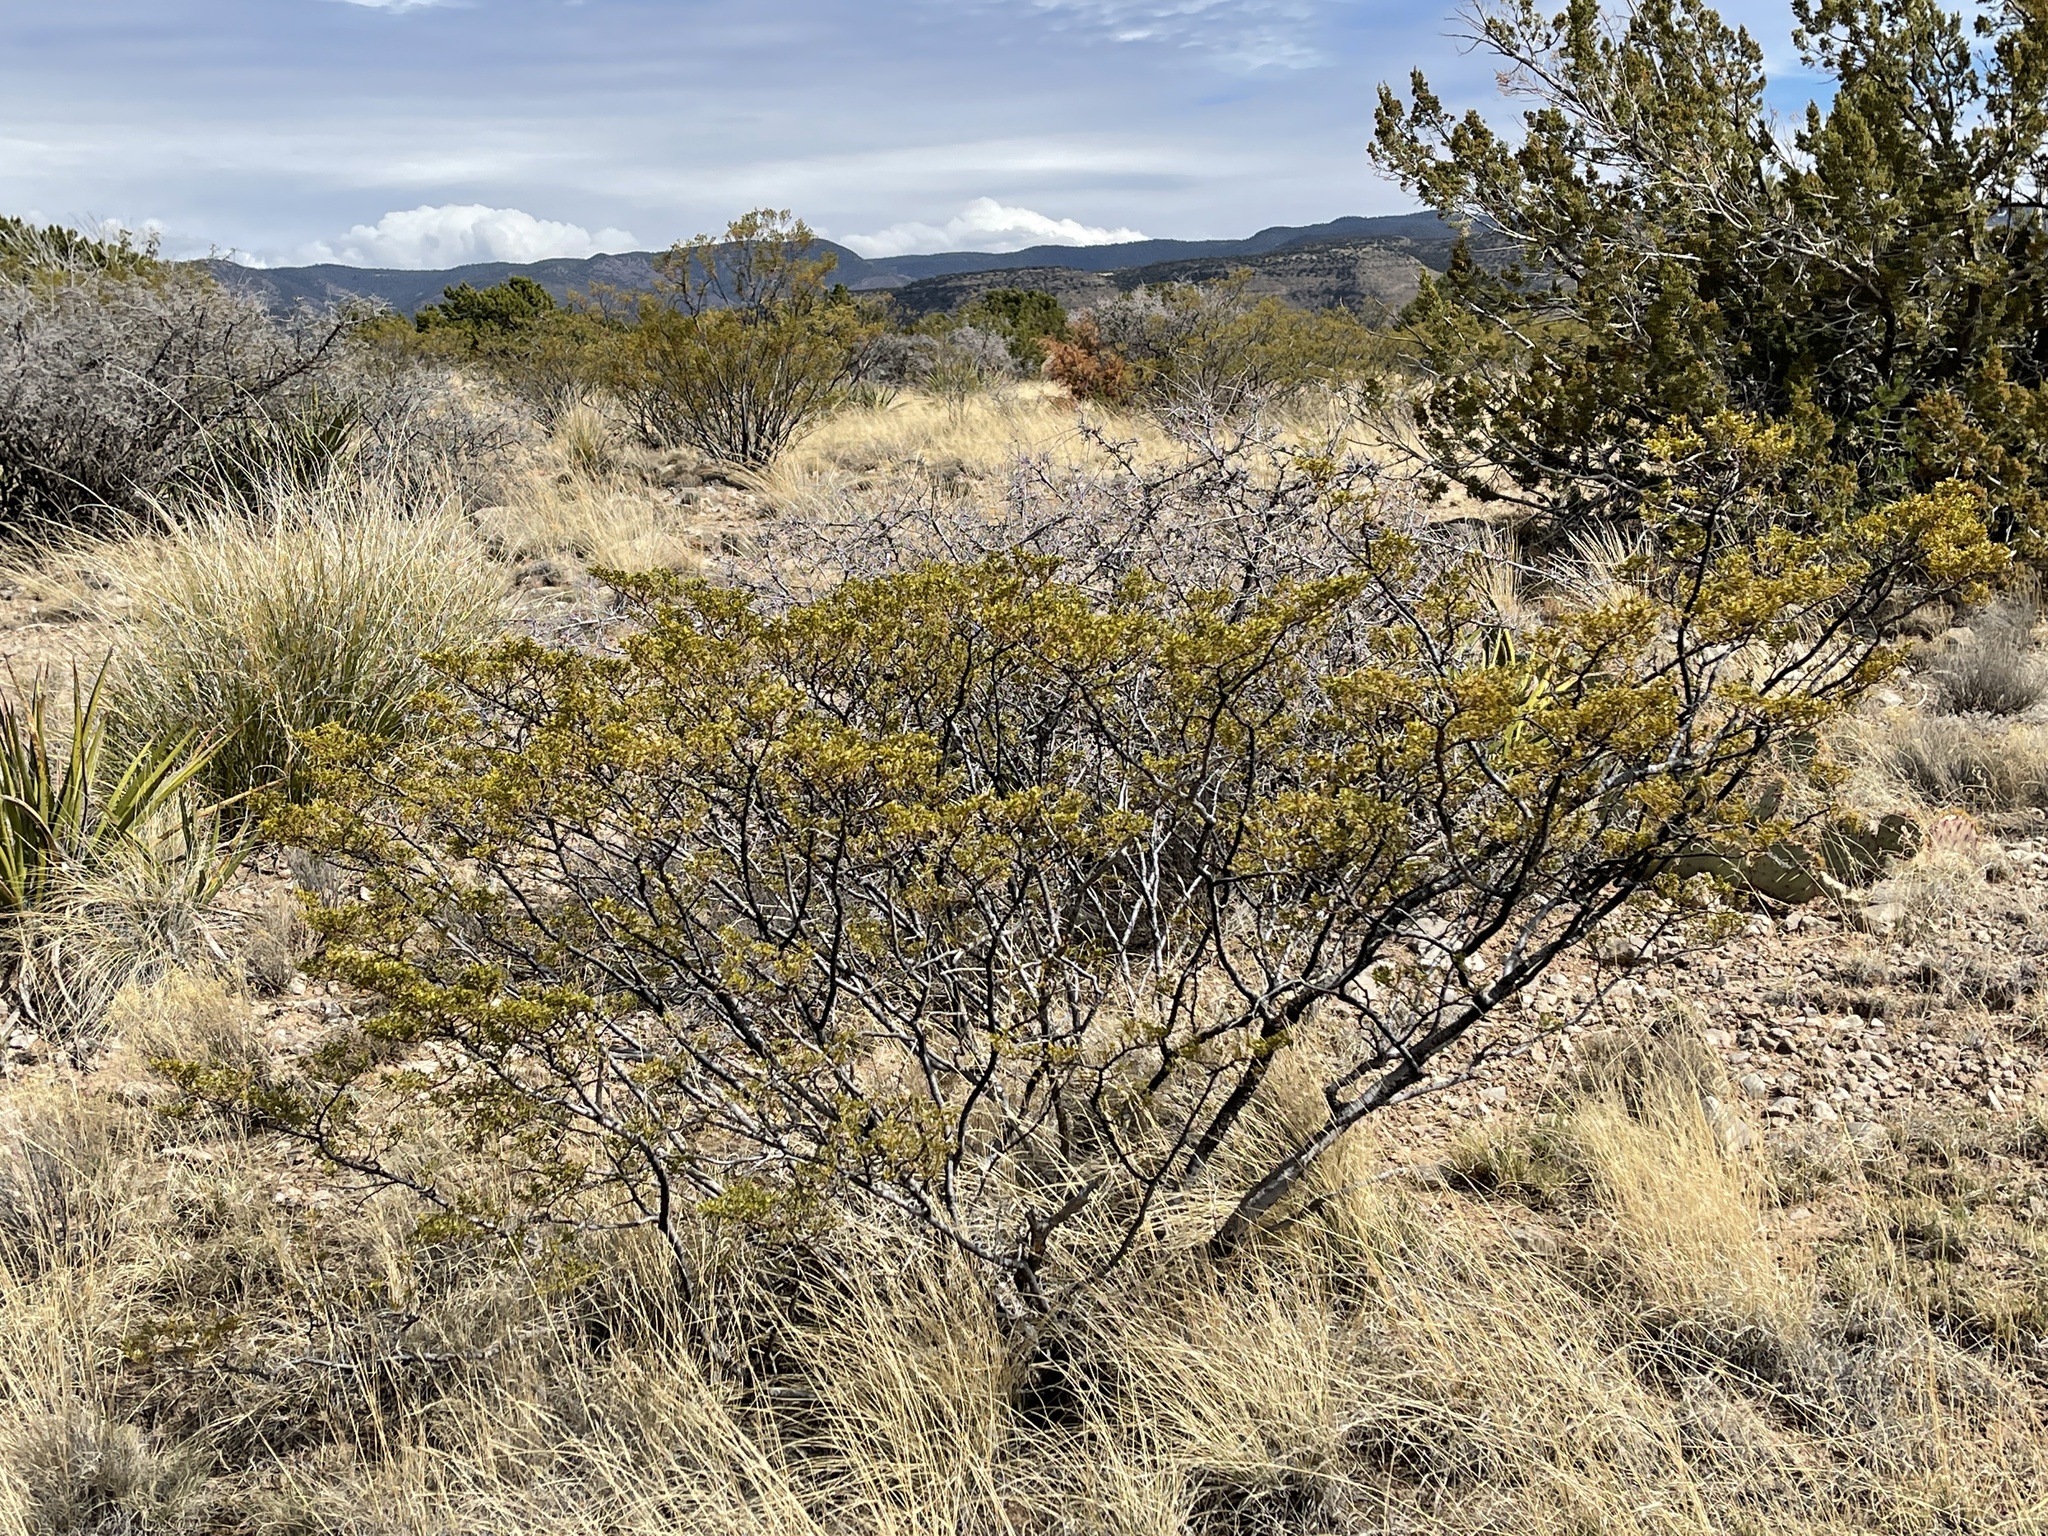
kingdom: Plantae
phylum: Tracheophyta
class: Magnoliopsida
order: Zygophyllales
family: Zygophyllaceae
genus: Larrea
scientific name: Larrea tridentata
